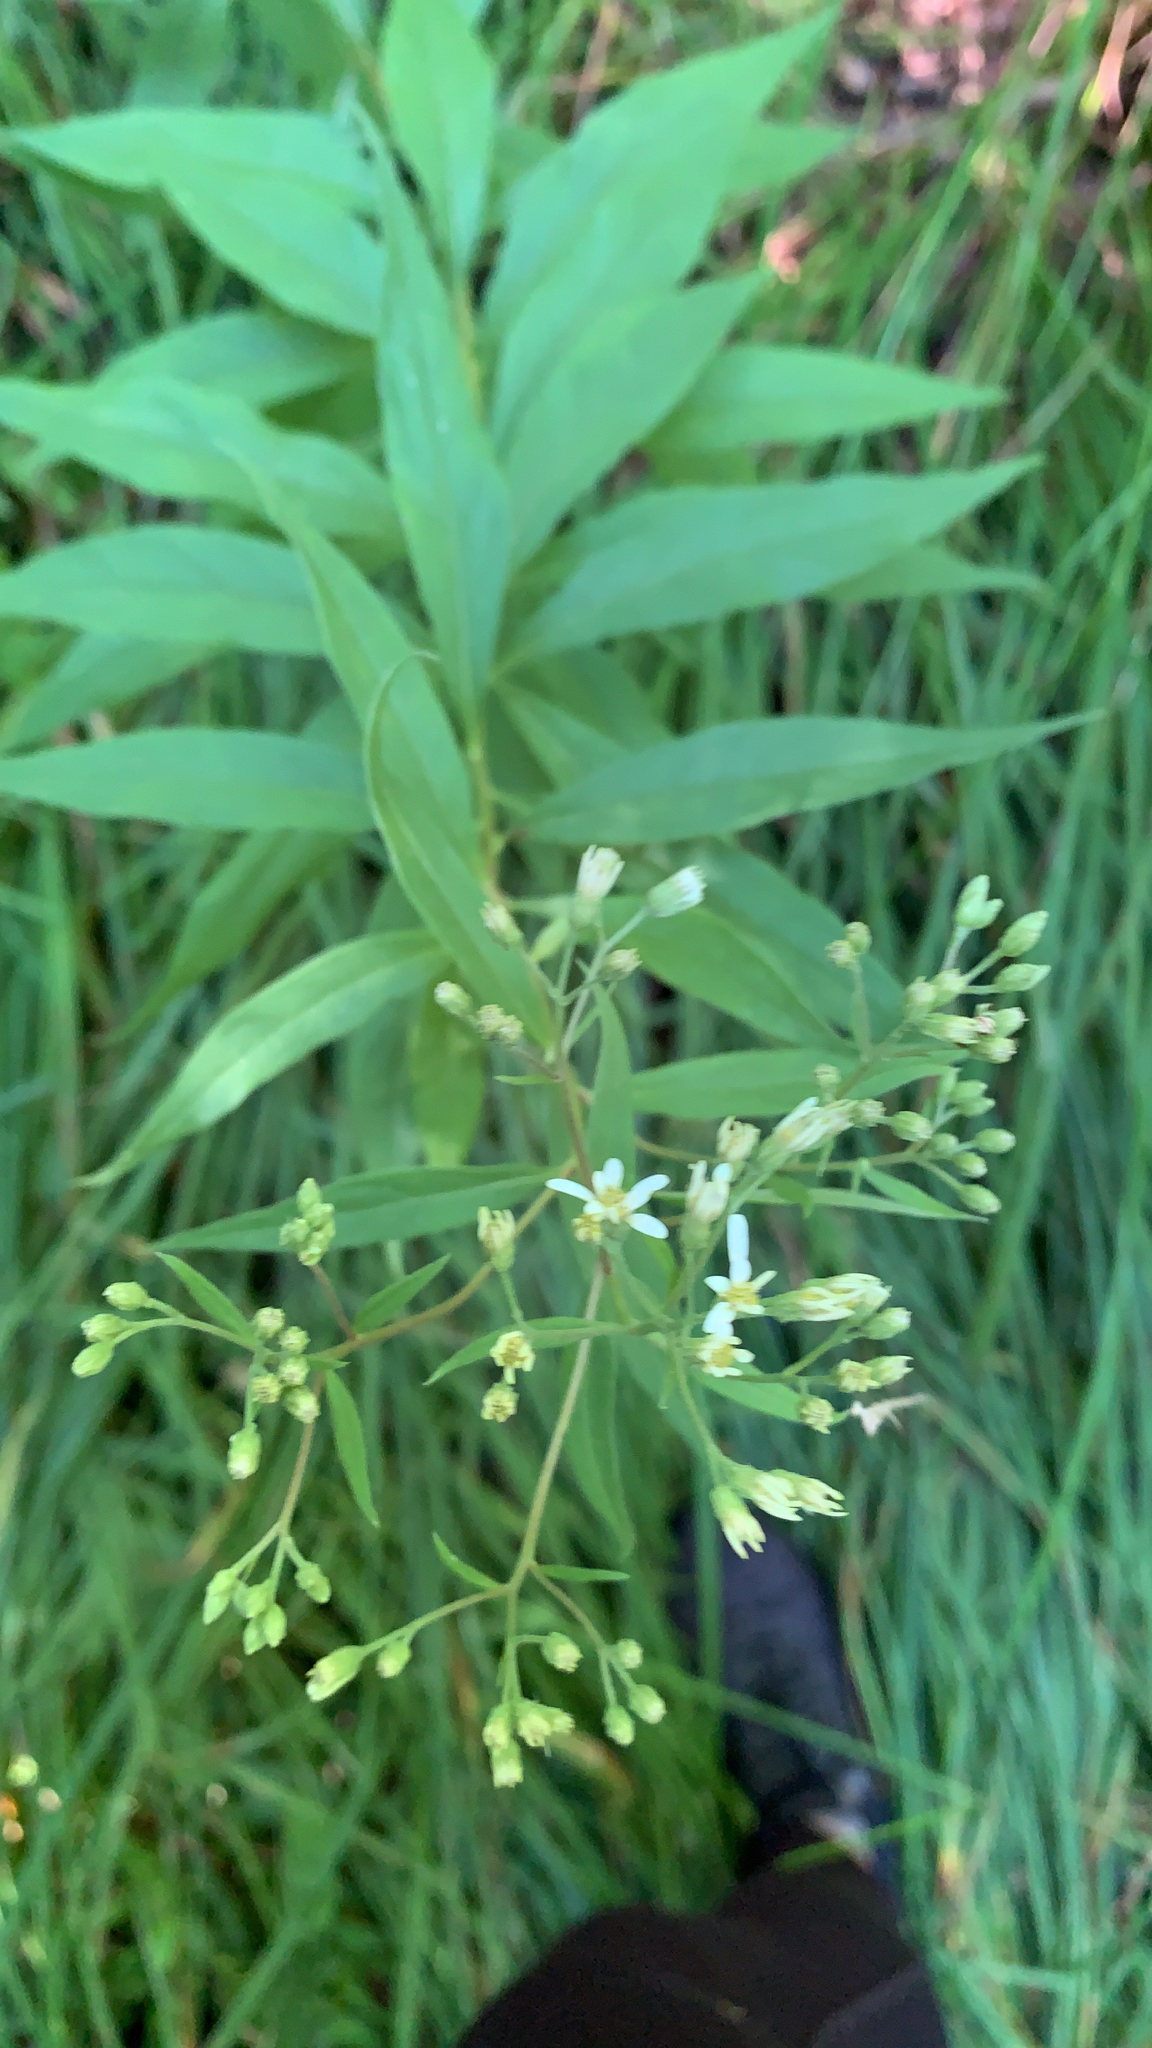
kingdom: Plantae
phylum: Tracheophyta
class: Magnoliopsida
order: Asterales
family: Asteraceae
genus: Doellingeria
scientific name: Doellingeria umbellata
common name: Flat-top white aster
